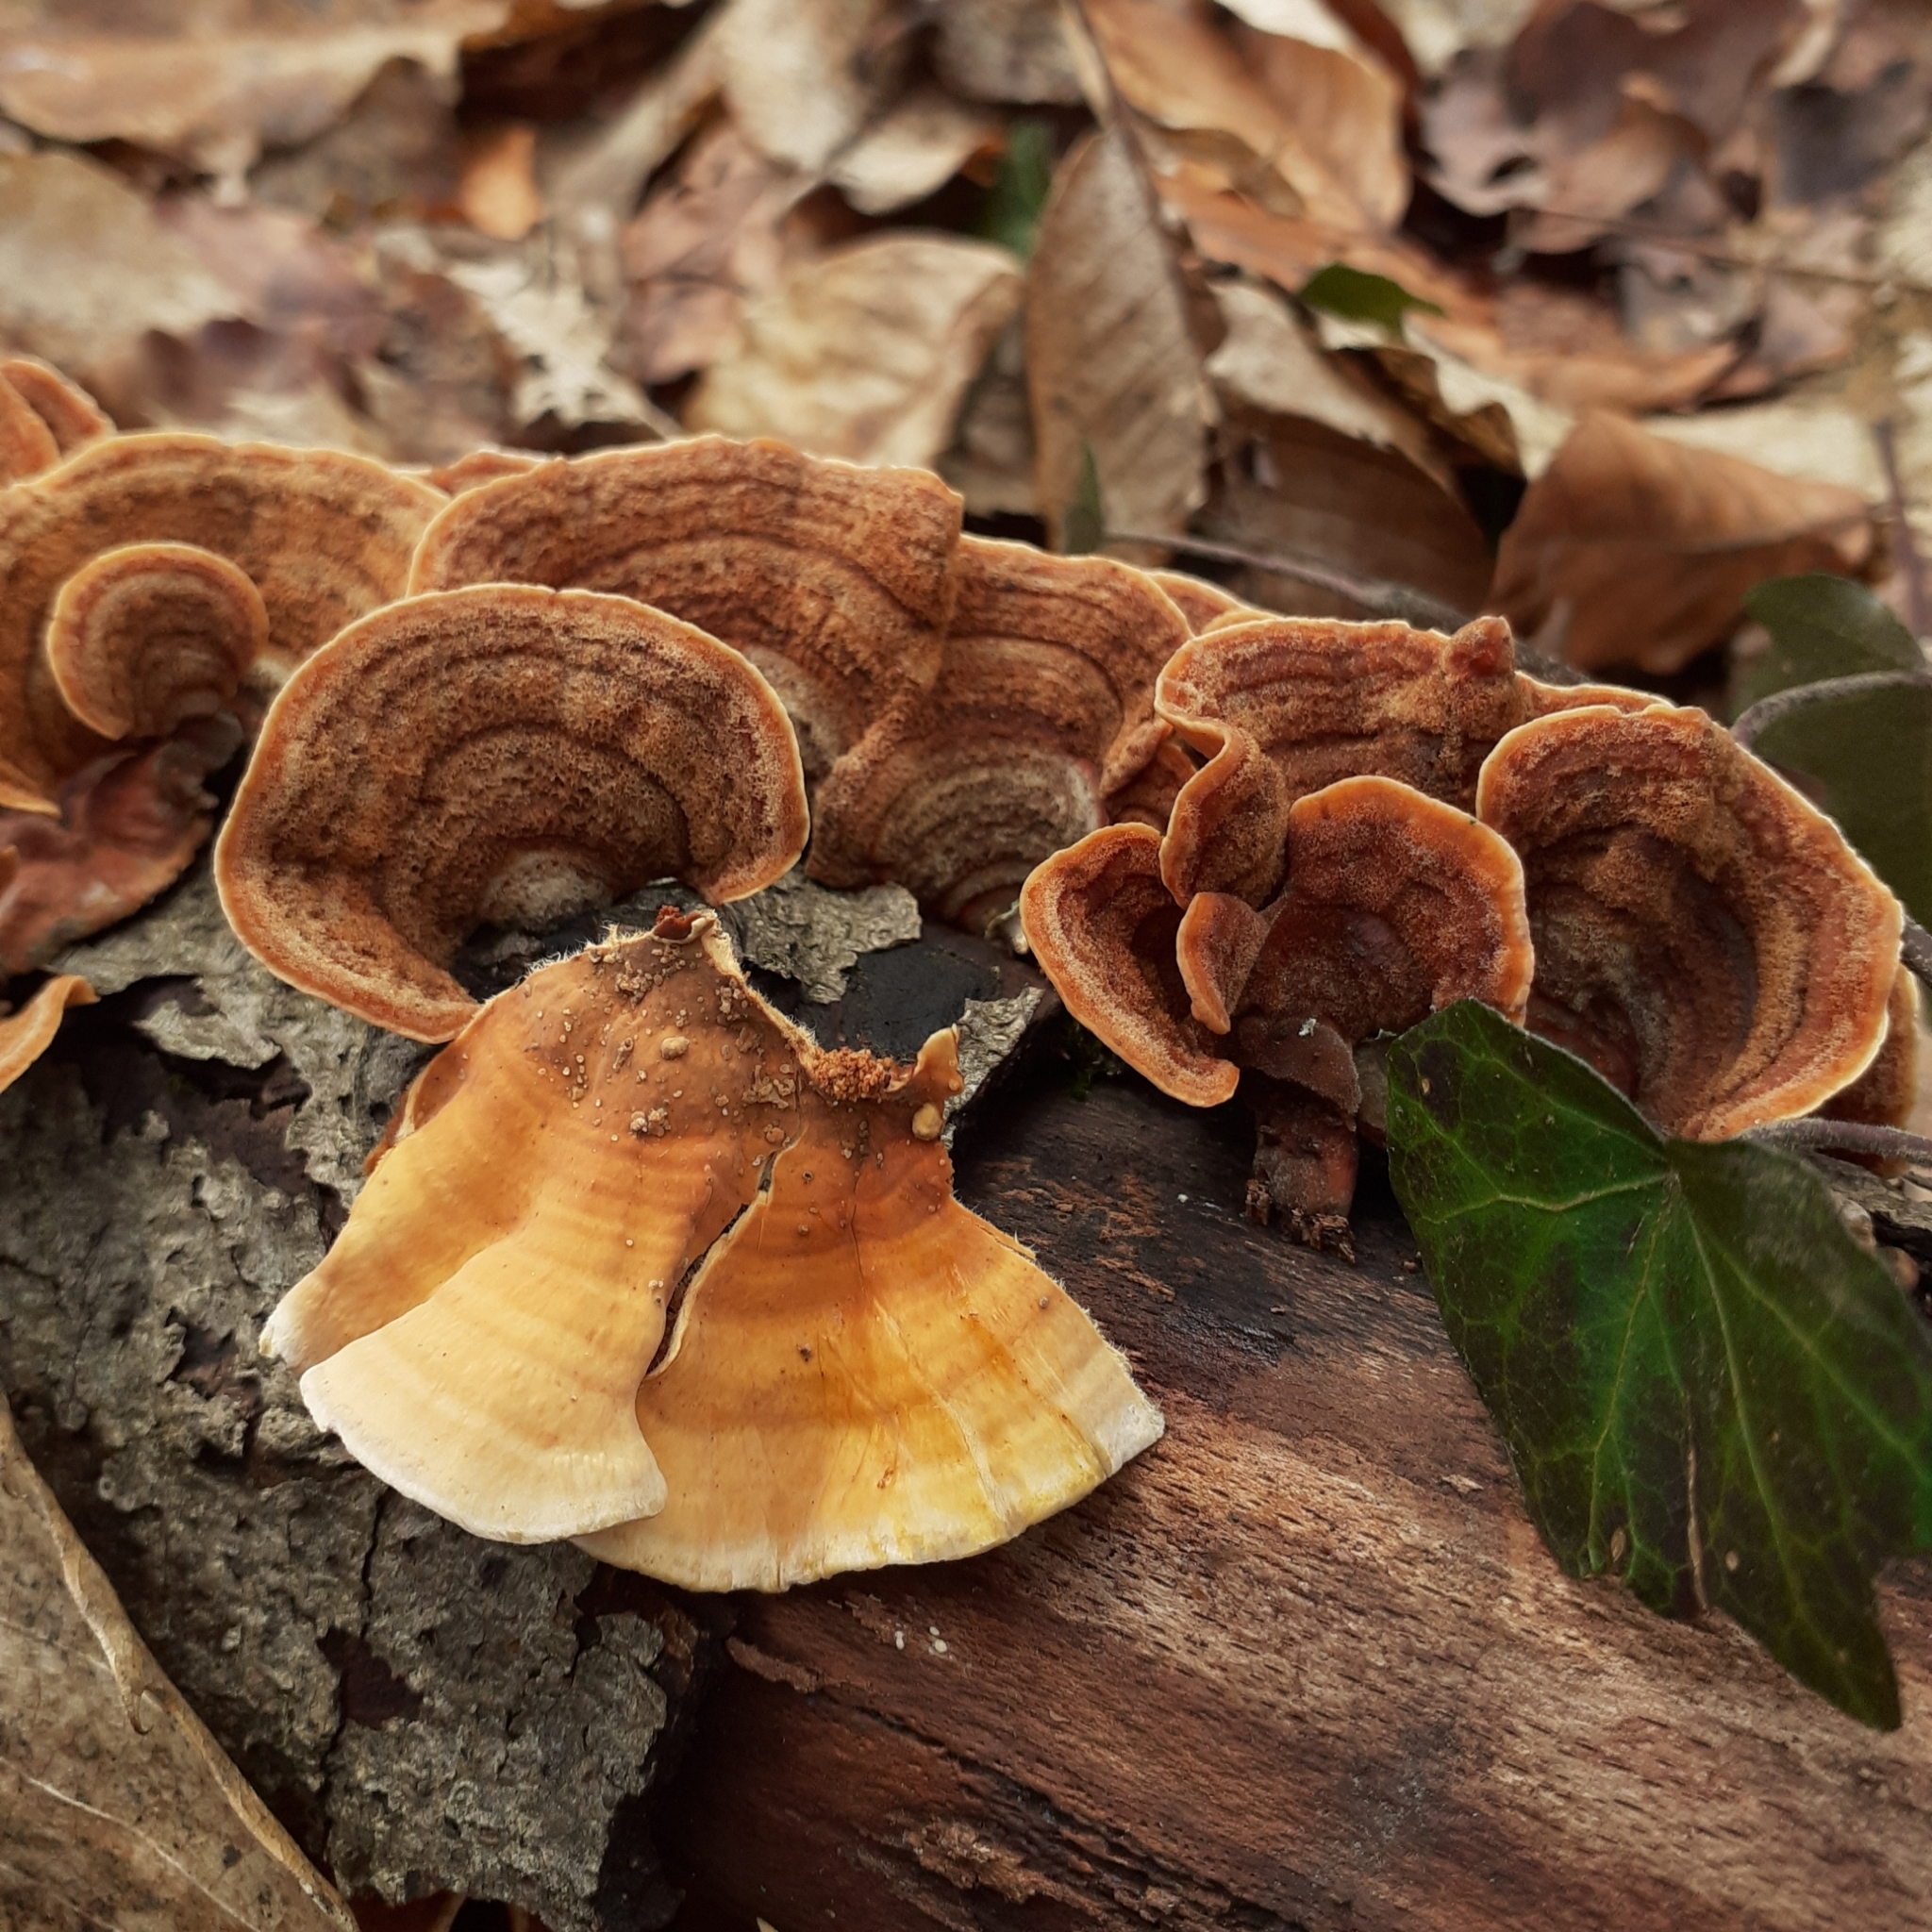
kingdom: Fungi
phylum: Basidiomycota
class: Agaricomycetes
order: Russulales
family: Stereaceae
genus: Stereum
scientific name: Stereum subtomentosum
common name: Yellowing curtain crust
